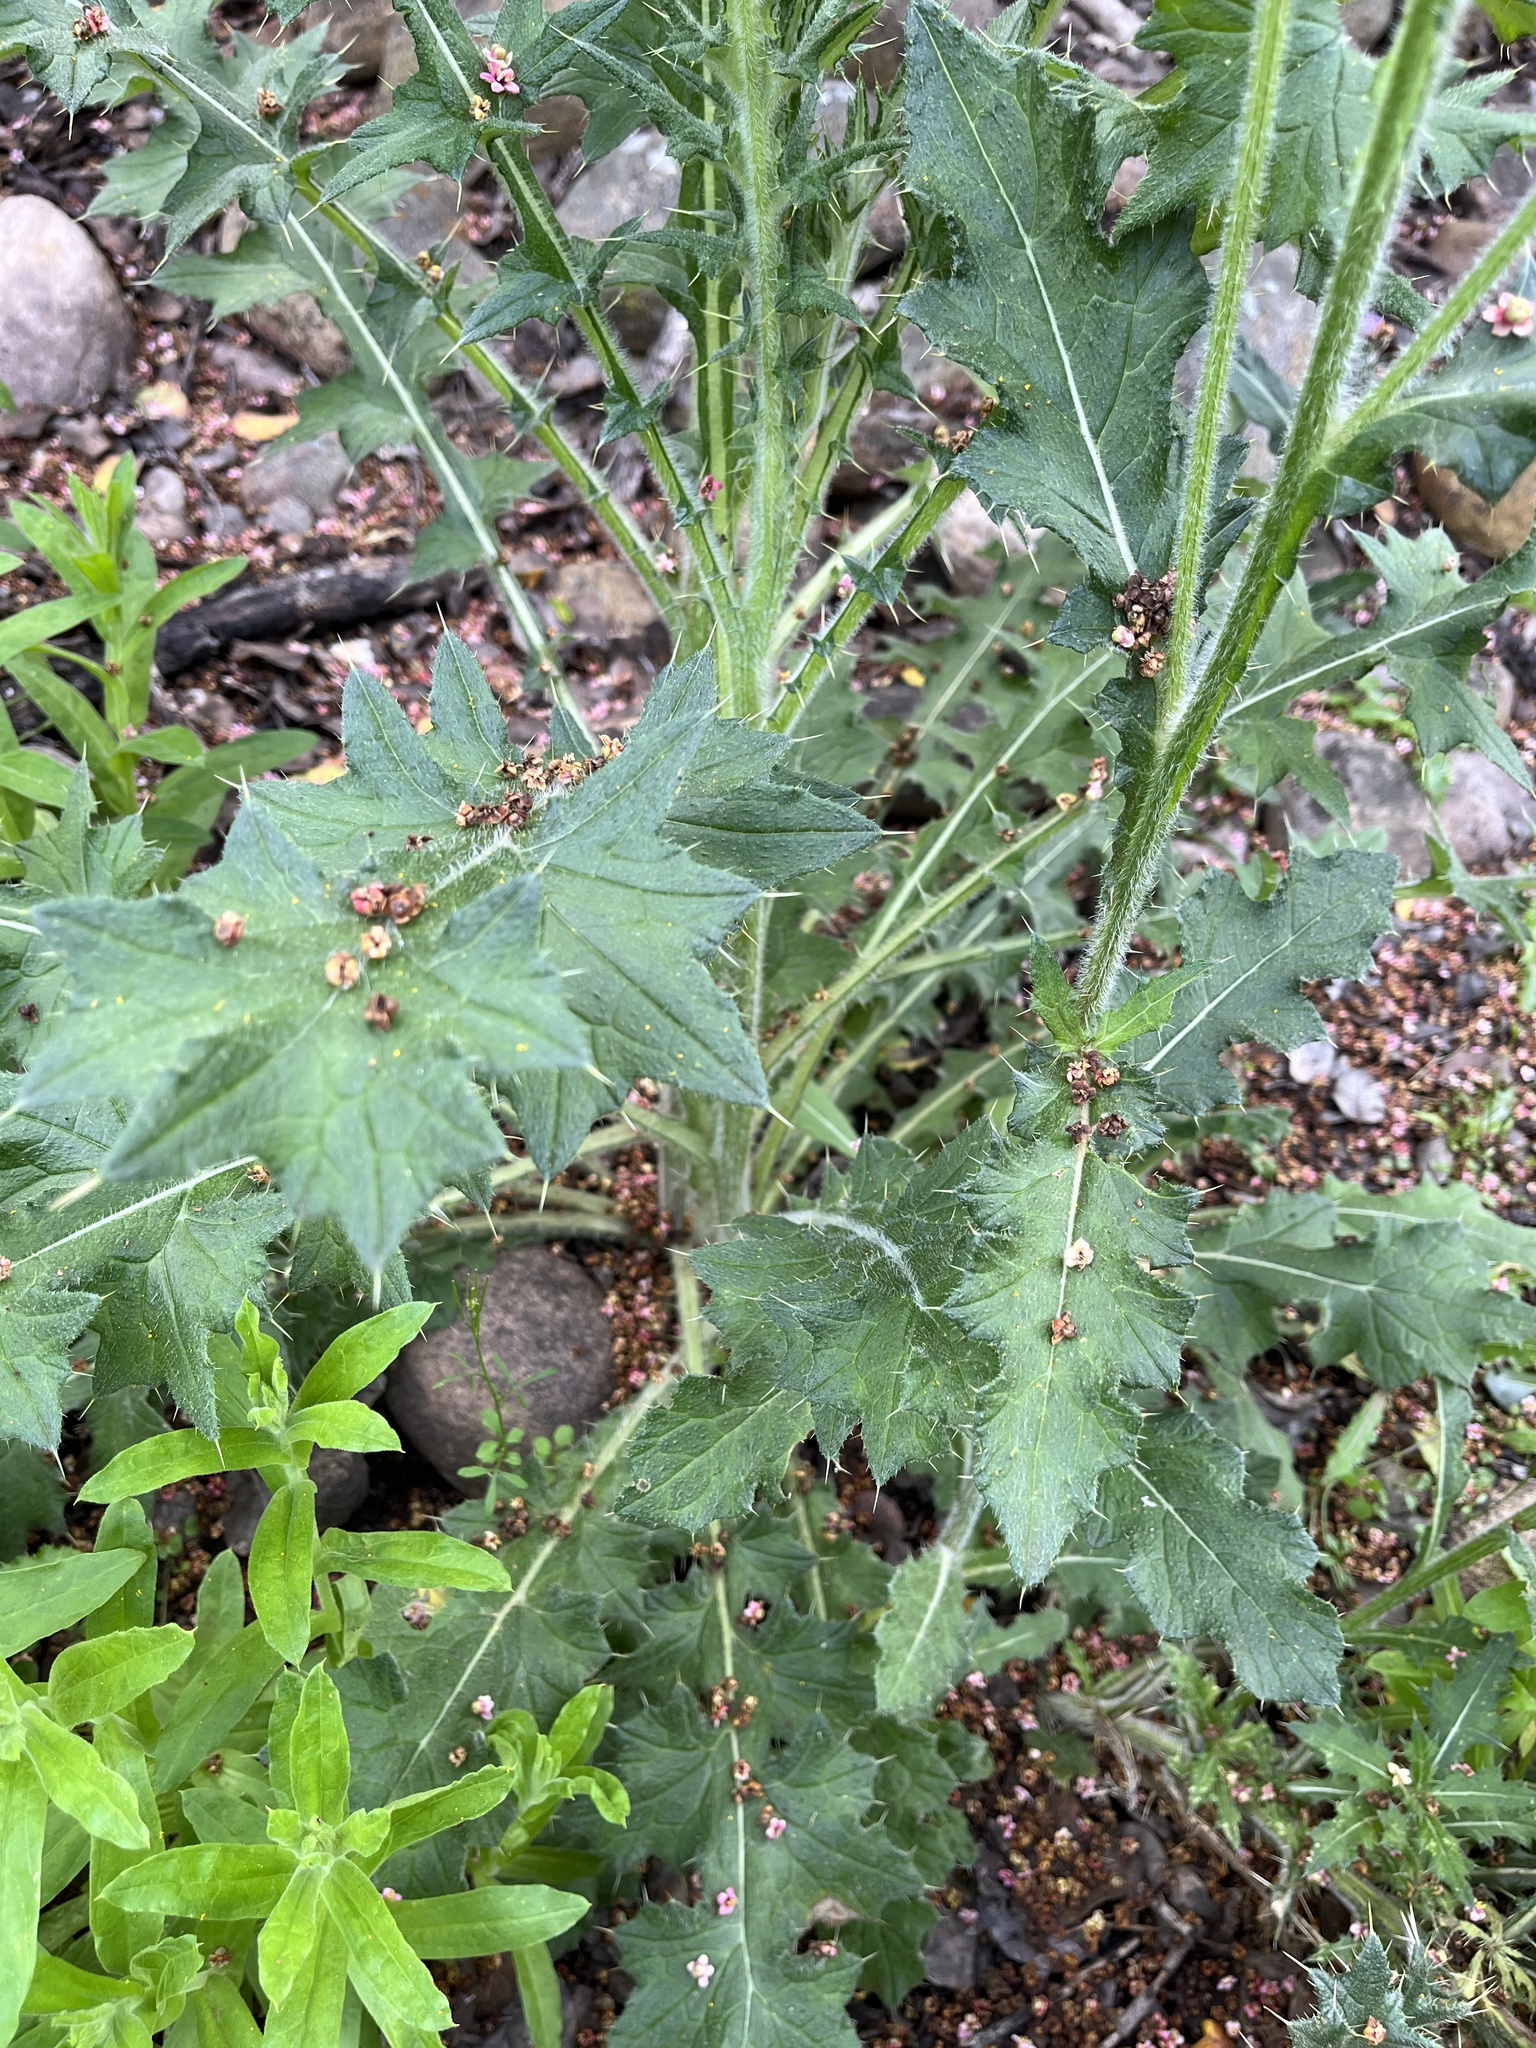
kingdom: Plantae
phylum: Tracheophyta
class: Magnoliopsida
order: Asterales
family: Asteraceae
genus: Cirsium
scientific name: Cirsium vulgare
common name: Bull thistle
